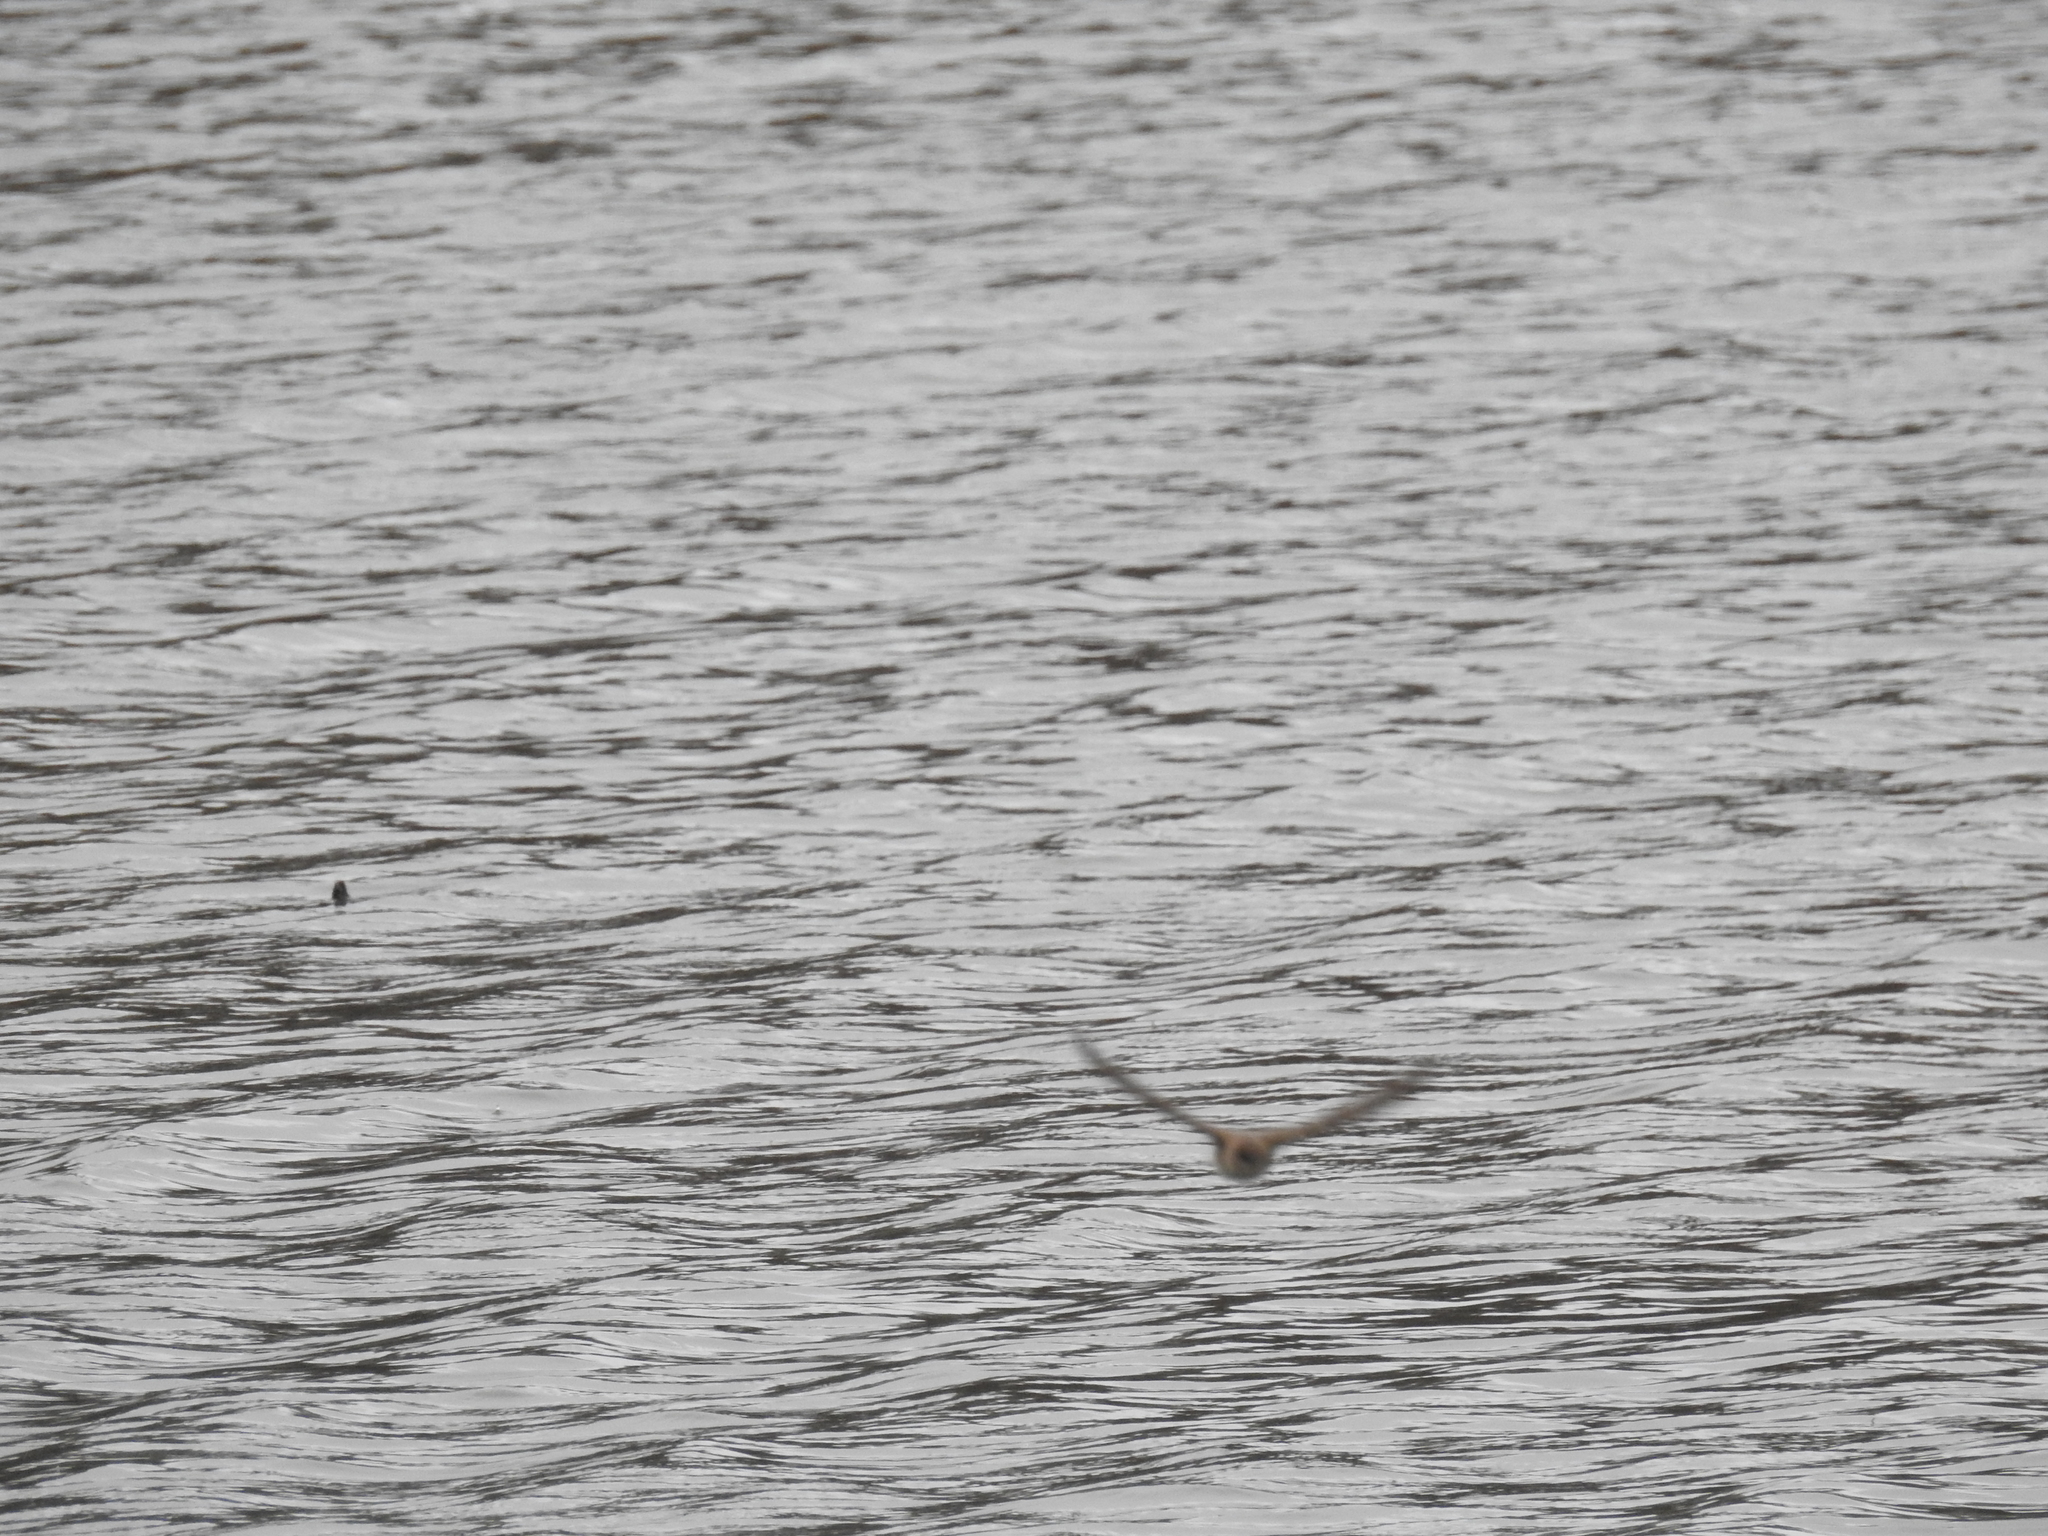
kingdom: Animalia
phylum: Chordata
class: Aves
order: Passeriformes
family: Hirundinidae
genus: Stelgidopteryx
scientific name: Stelgidopteryx serripennis
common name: Northern rough-winged swallow
